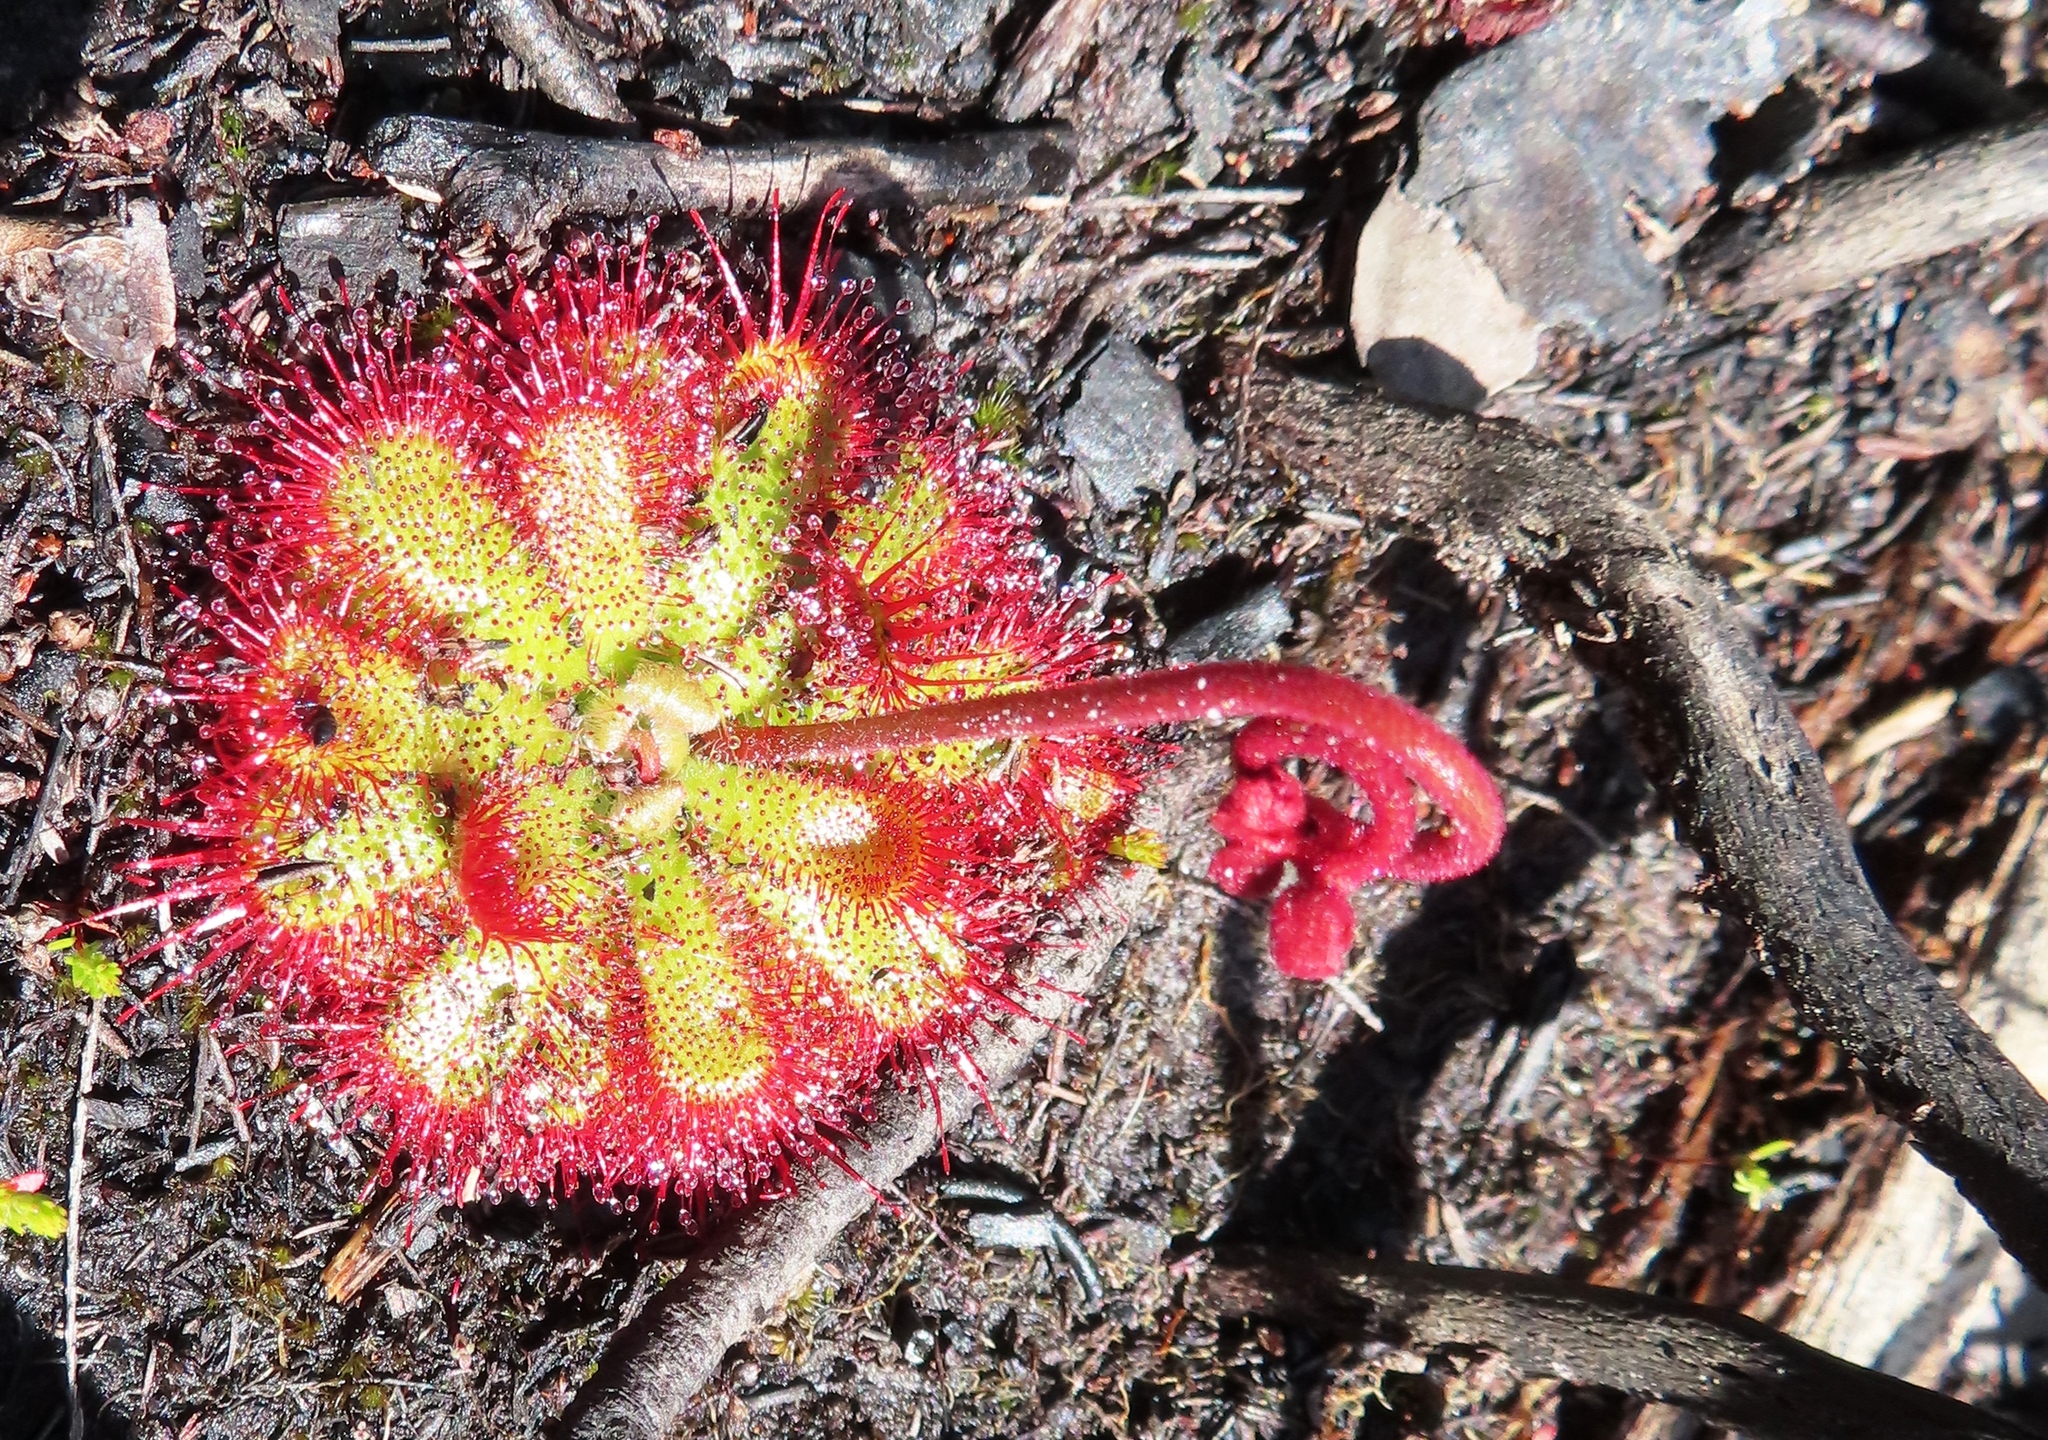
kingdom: Plantae
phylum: Tracheophyta
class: Magnoliopsida
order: Caryophyllales
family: Droseraceae
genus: Drosera
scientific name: Drosera aliciae
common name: Alice sundew
